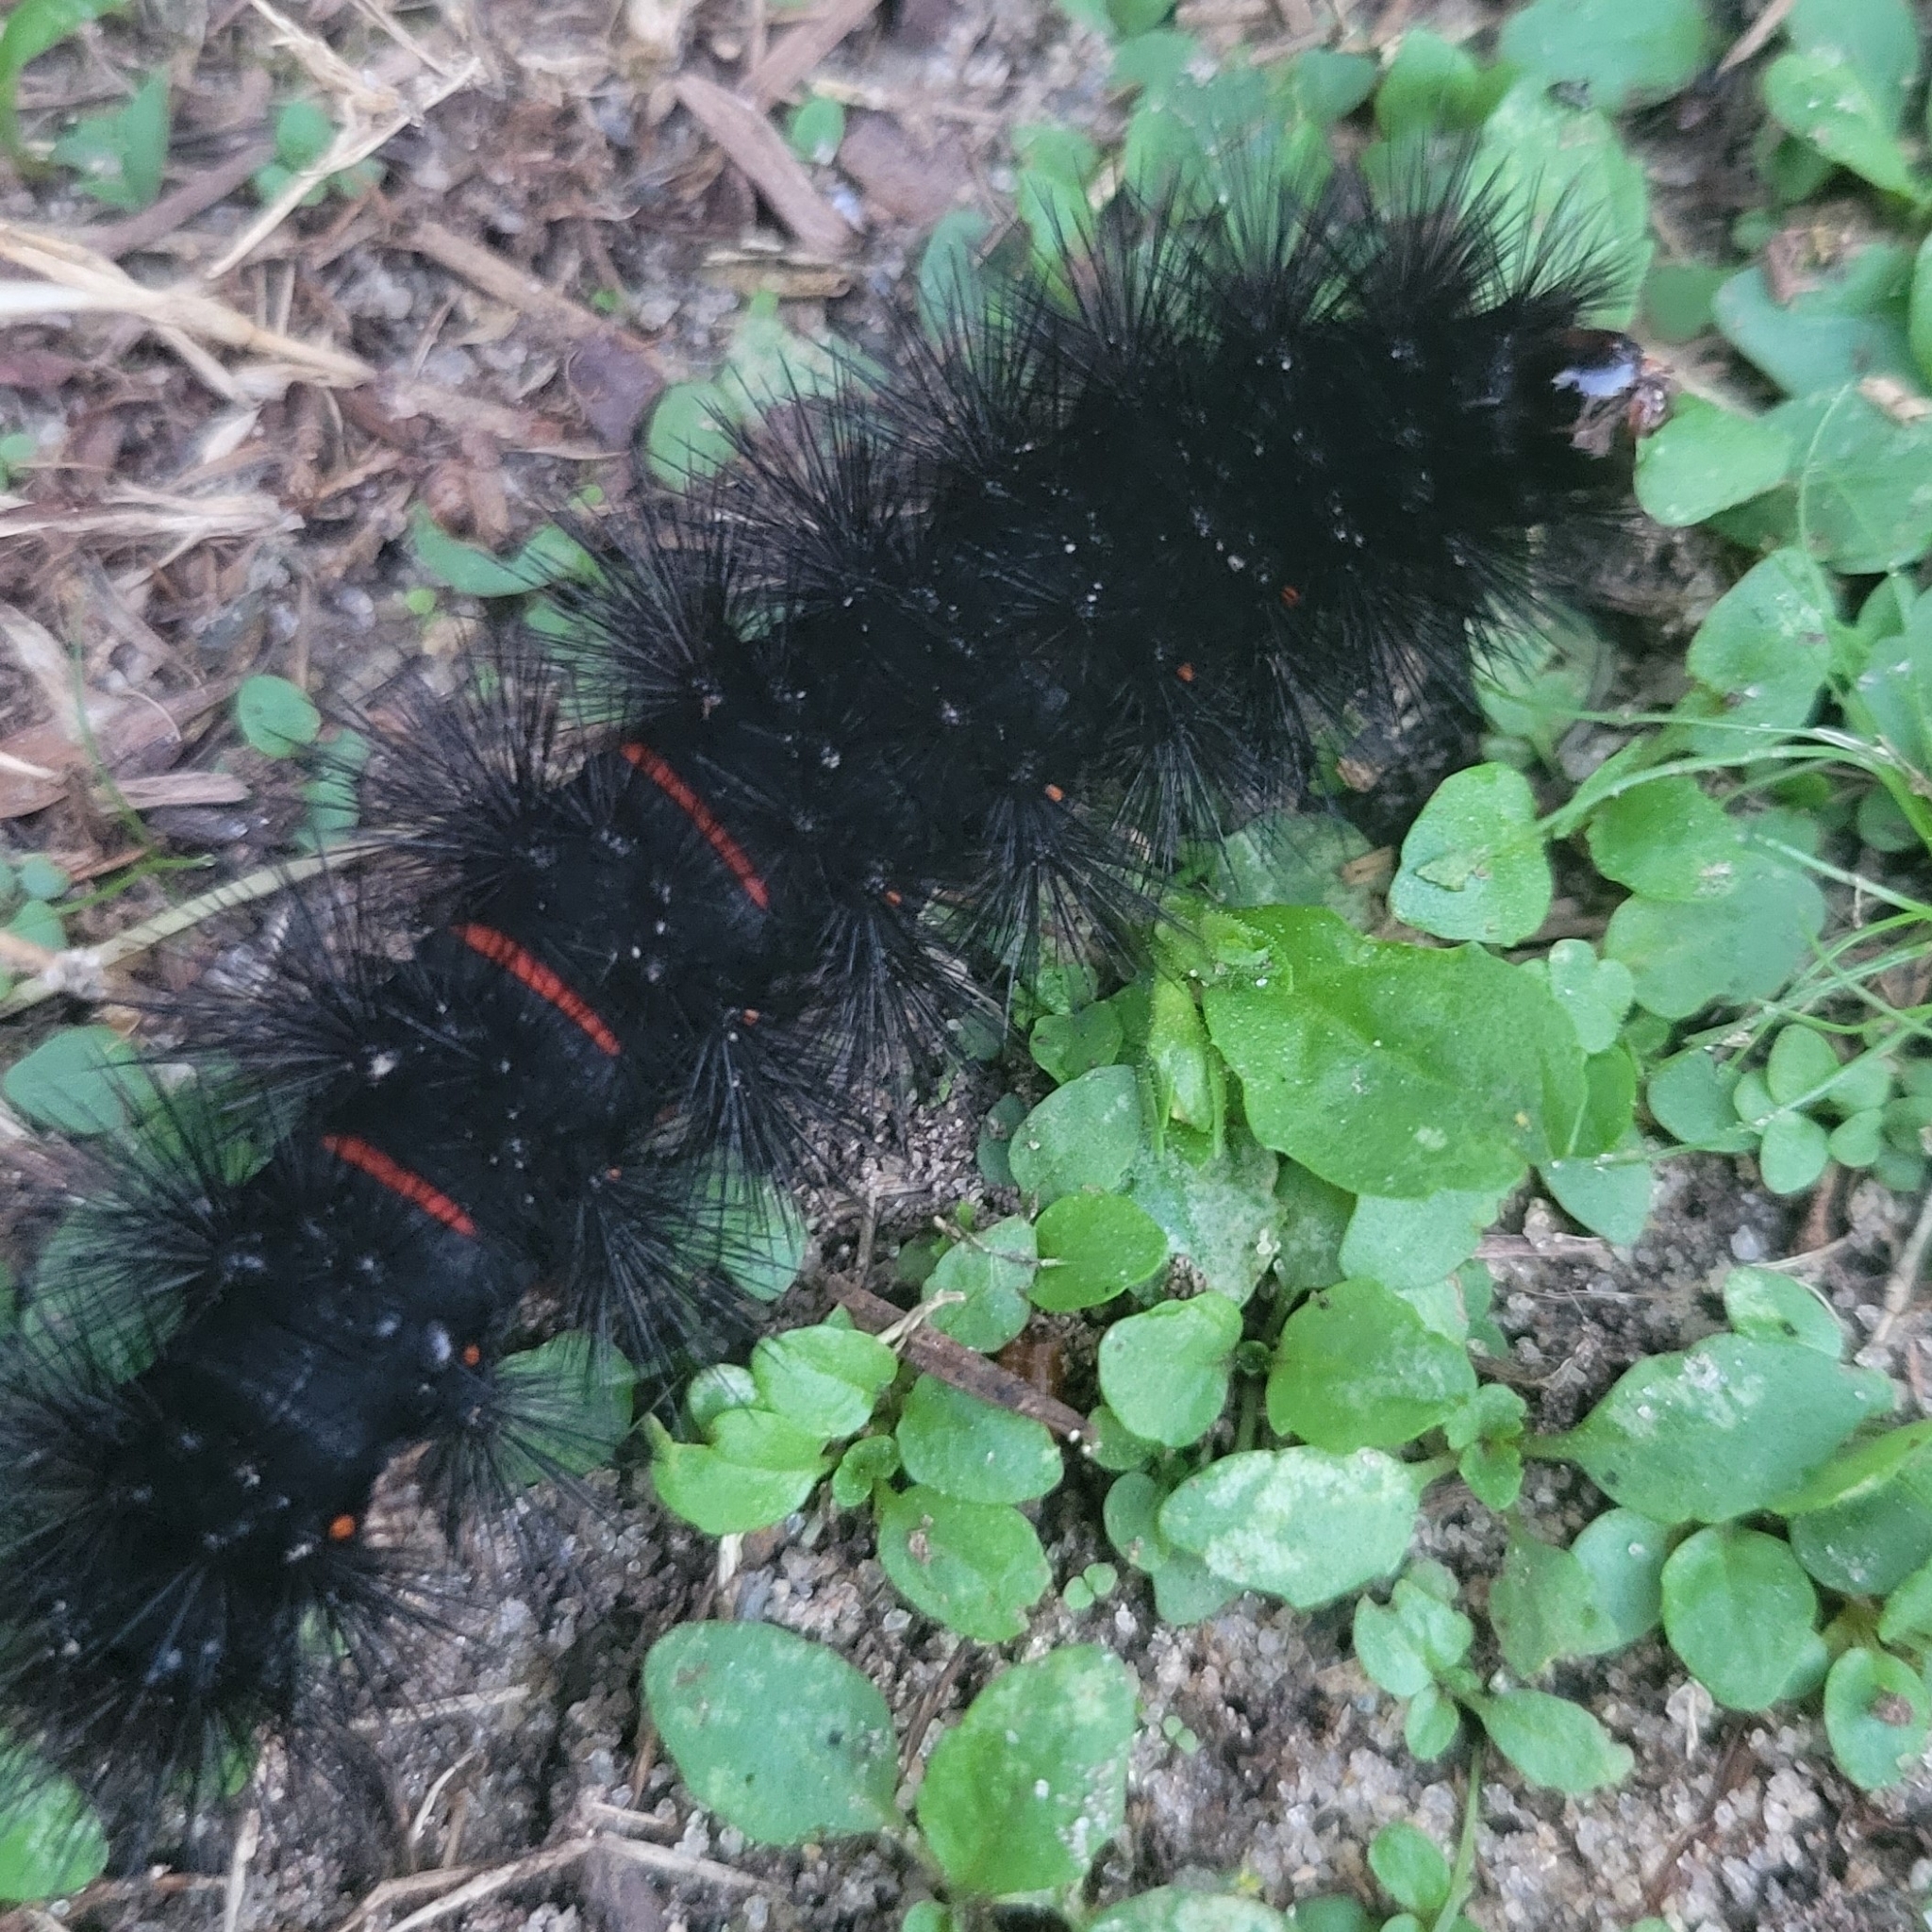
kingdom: Animalia
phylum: Arthropoda
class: Insecta
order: Lepidoptera
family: Erebidae
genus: Hypercompe
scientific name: Hypercompe scribonia
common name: Giant leopard moth
